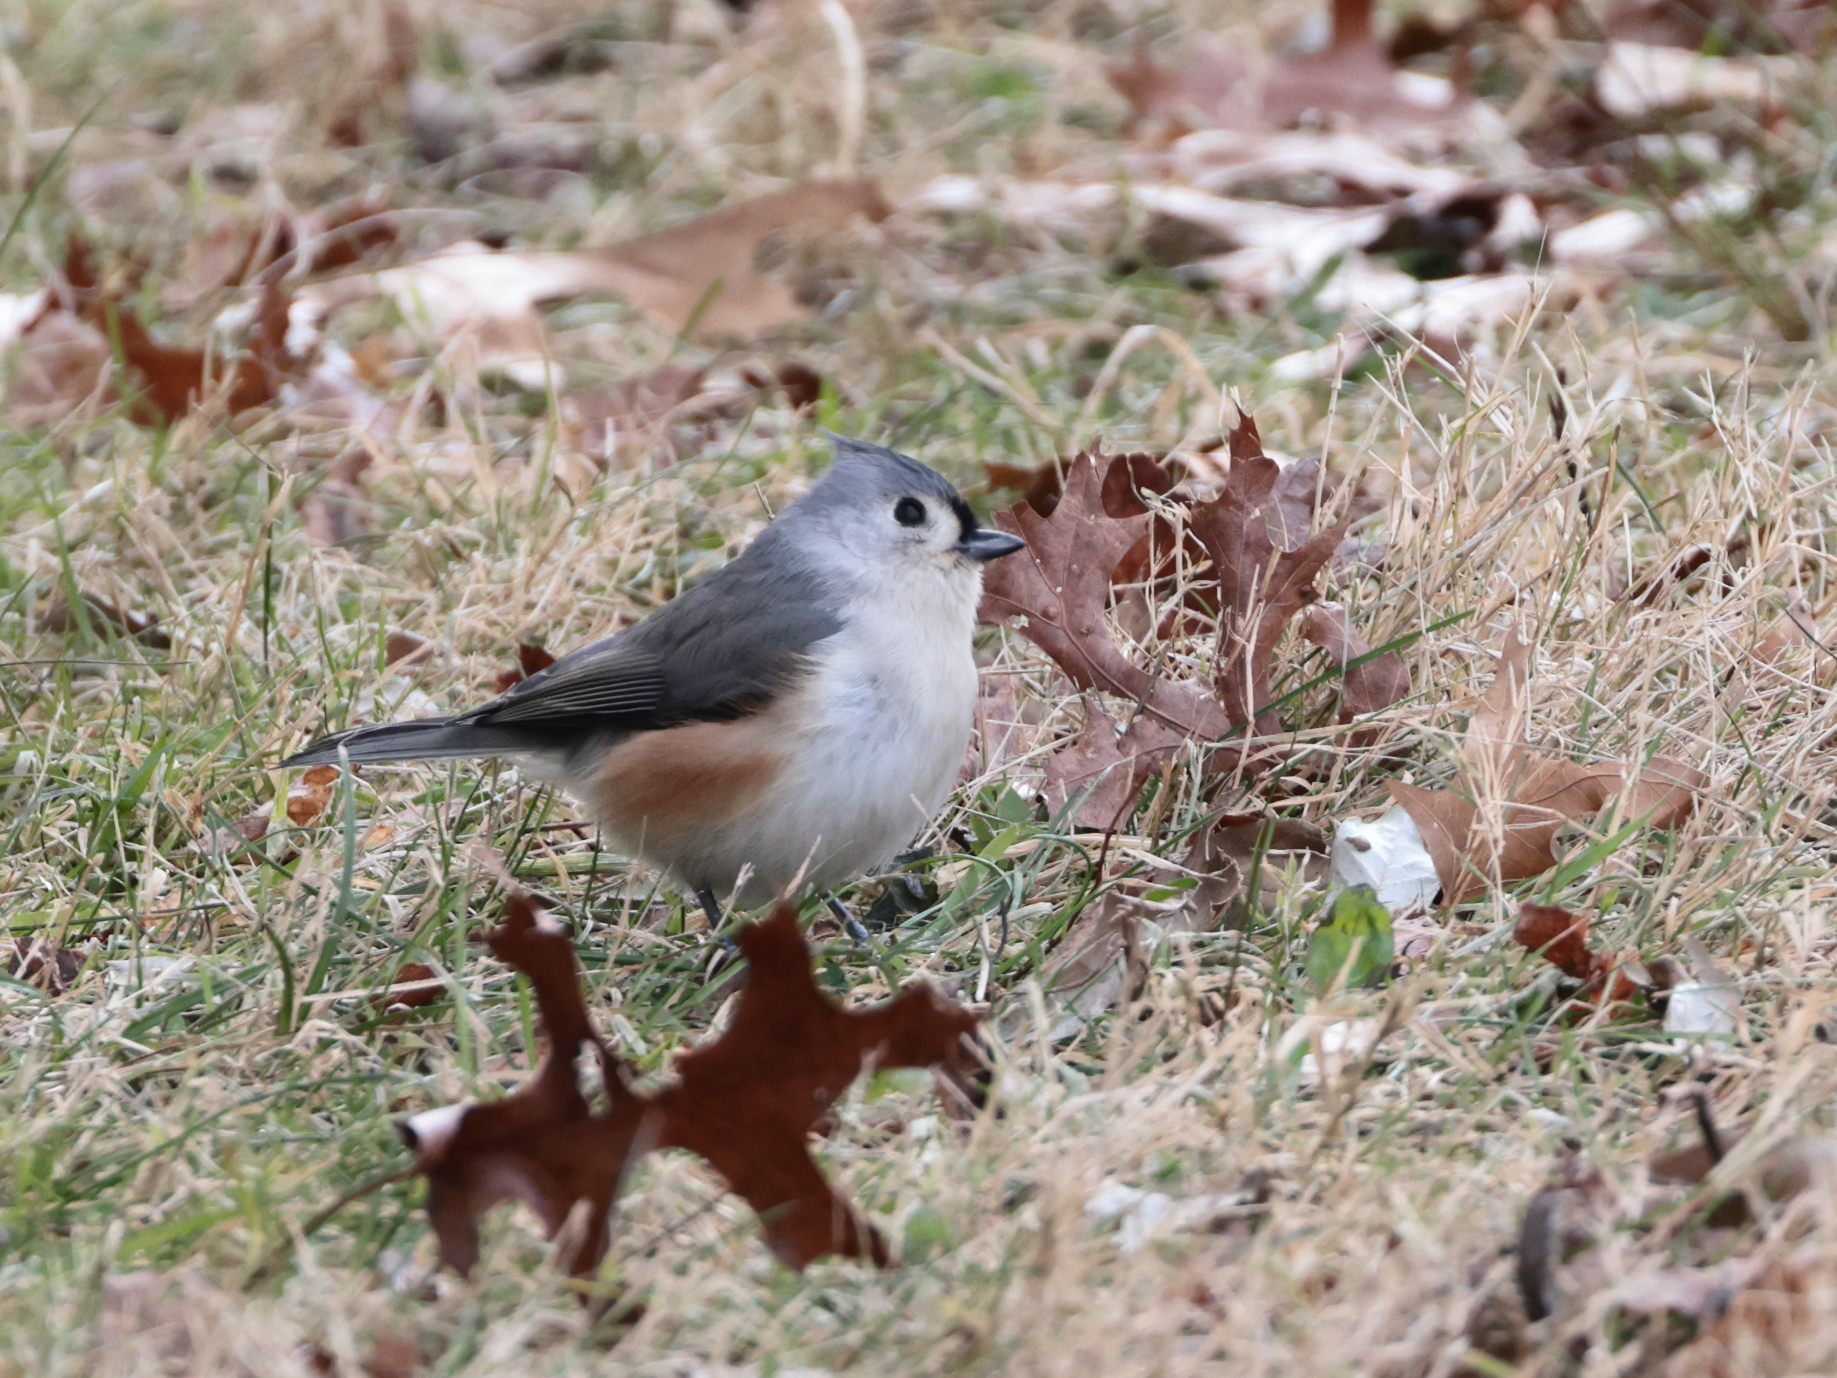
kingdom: Animalia
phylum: Chordata
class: Aves
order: Passeriformes
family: Paridae
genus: Baeolophus
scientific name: Baeolophus bicolor
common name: Tufted titmouse
